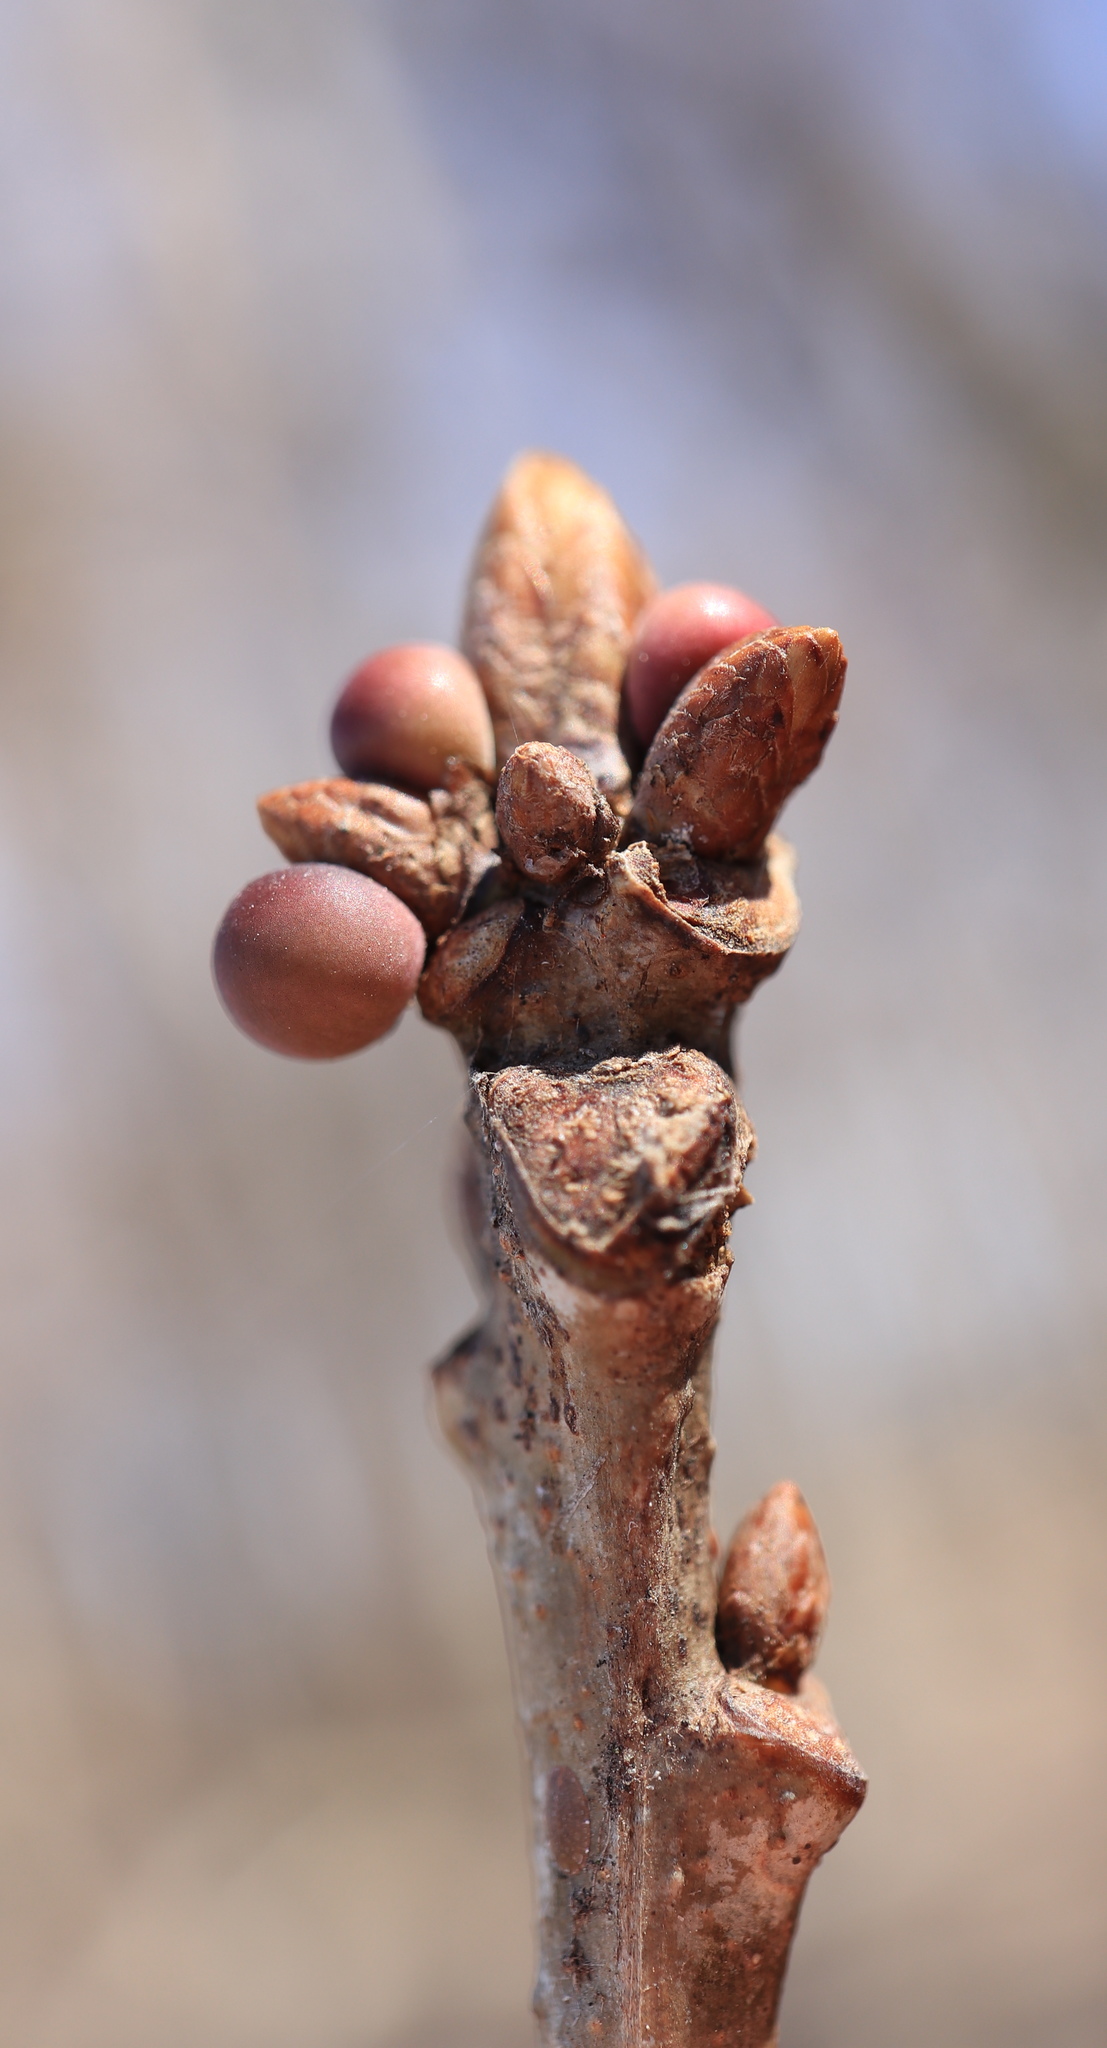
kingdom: Animalia
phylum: Arthropoda
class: Insecta
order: Hymenoptera
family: Cynipidae
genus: Neuroterus
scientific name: Neuroterus
